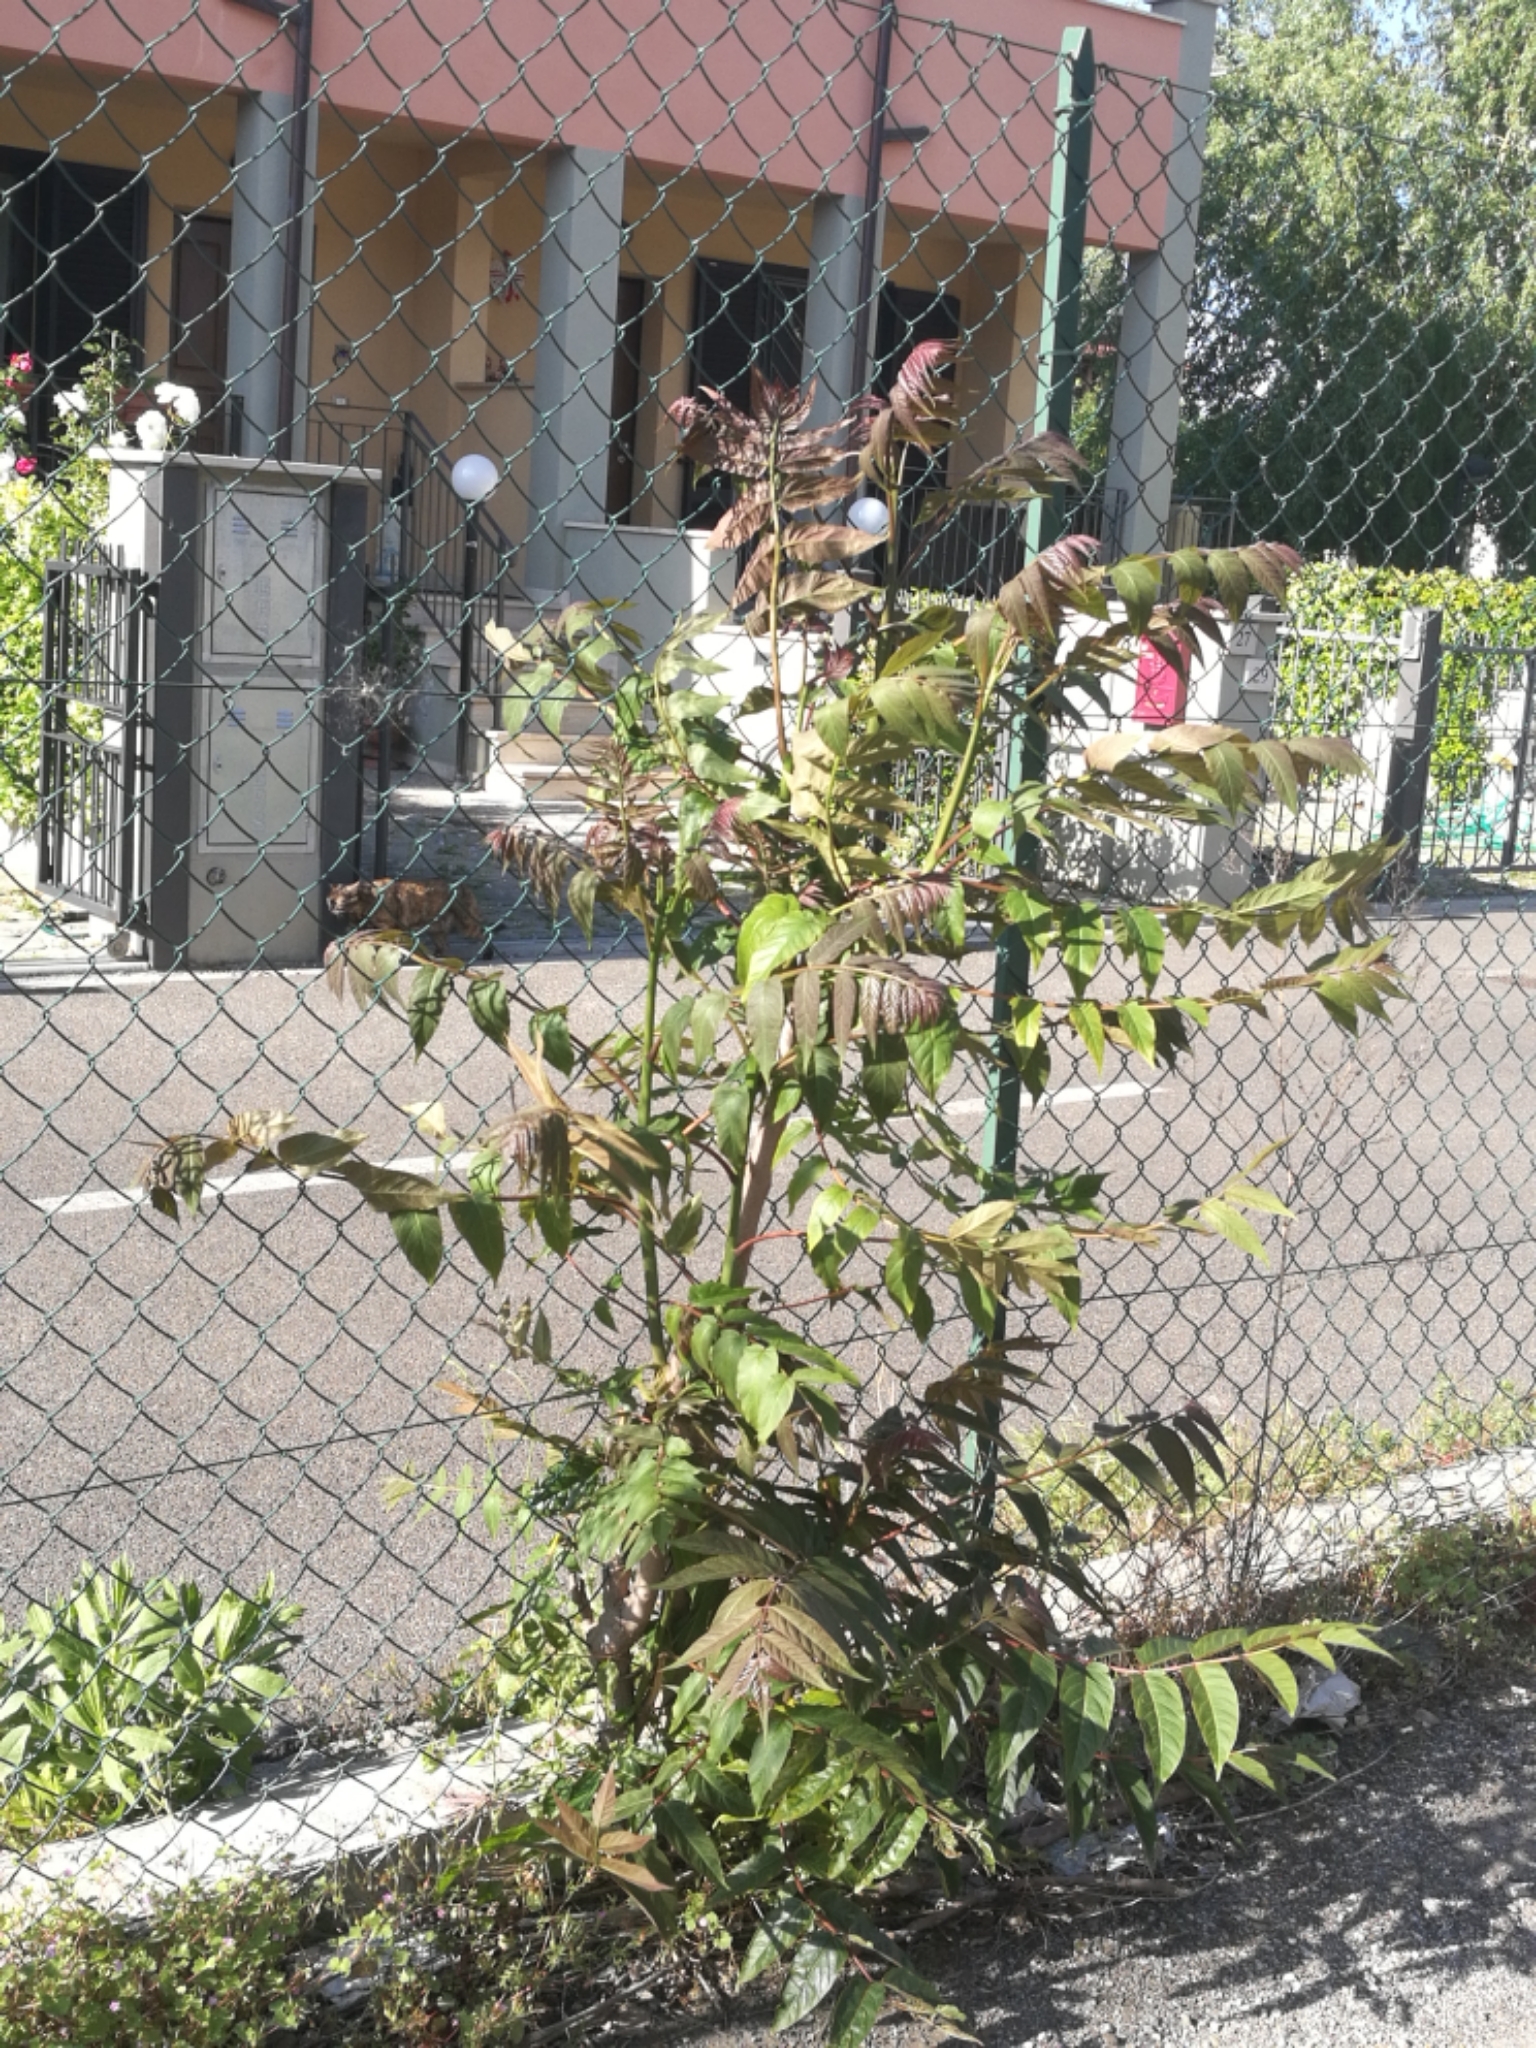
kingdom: Plantae
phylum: Tracheophyta
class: Magnoliopsida
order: Sapindales
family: Simaroubaceae
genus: Ailanthus
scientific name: Ailanthus altissima
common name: Tree-of-heaven
